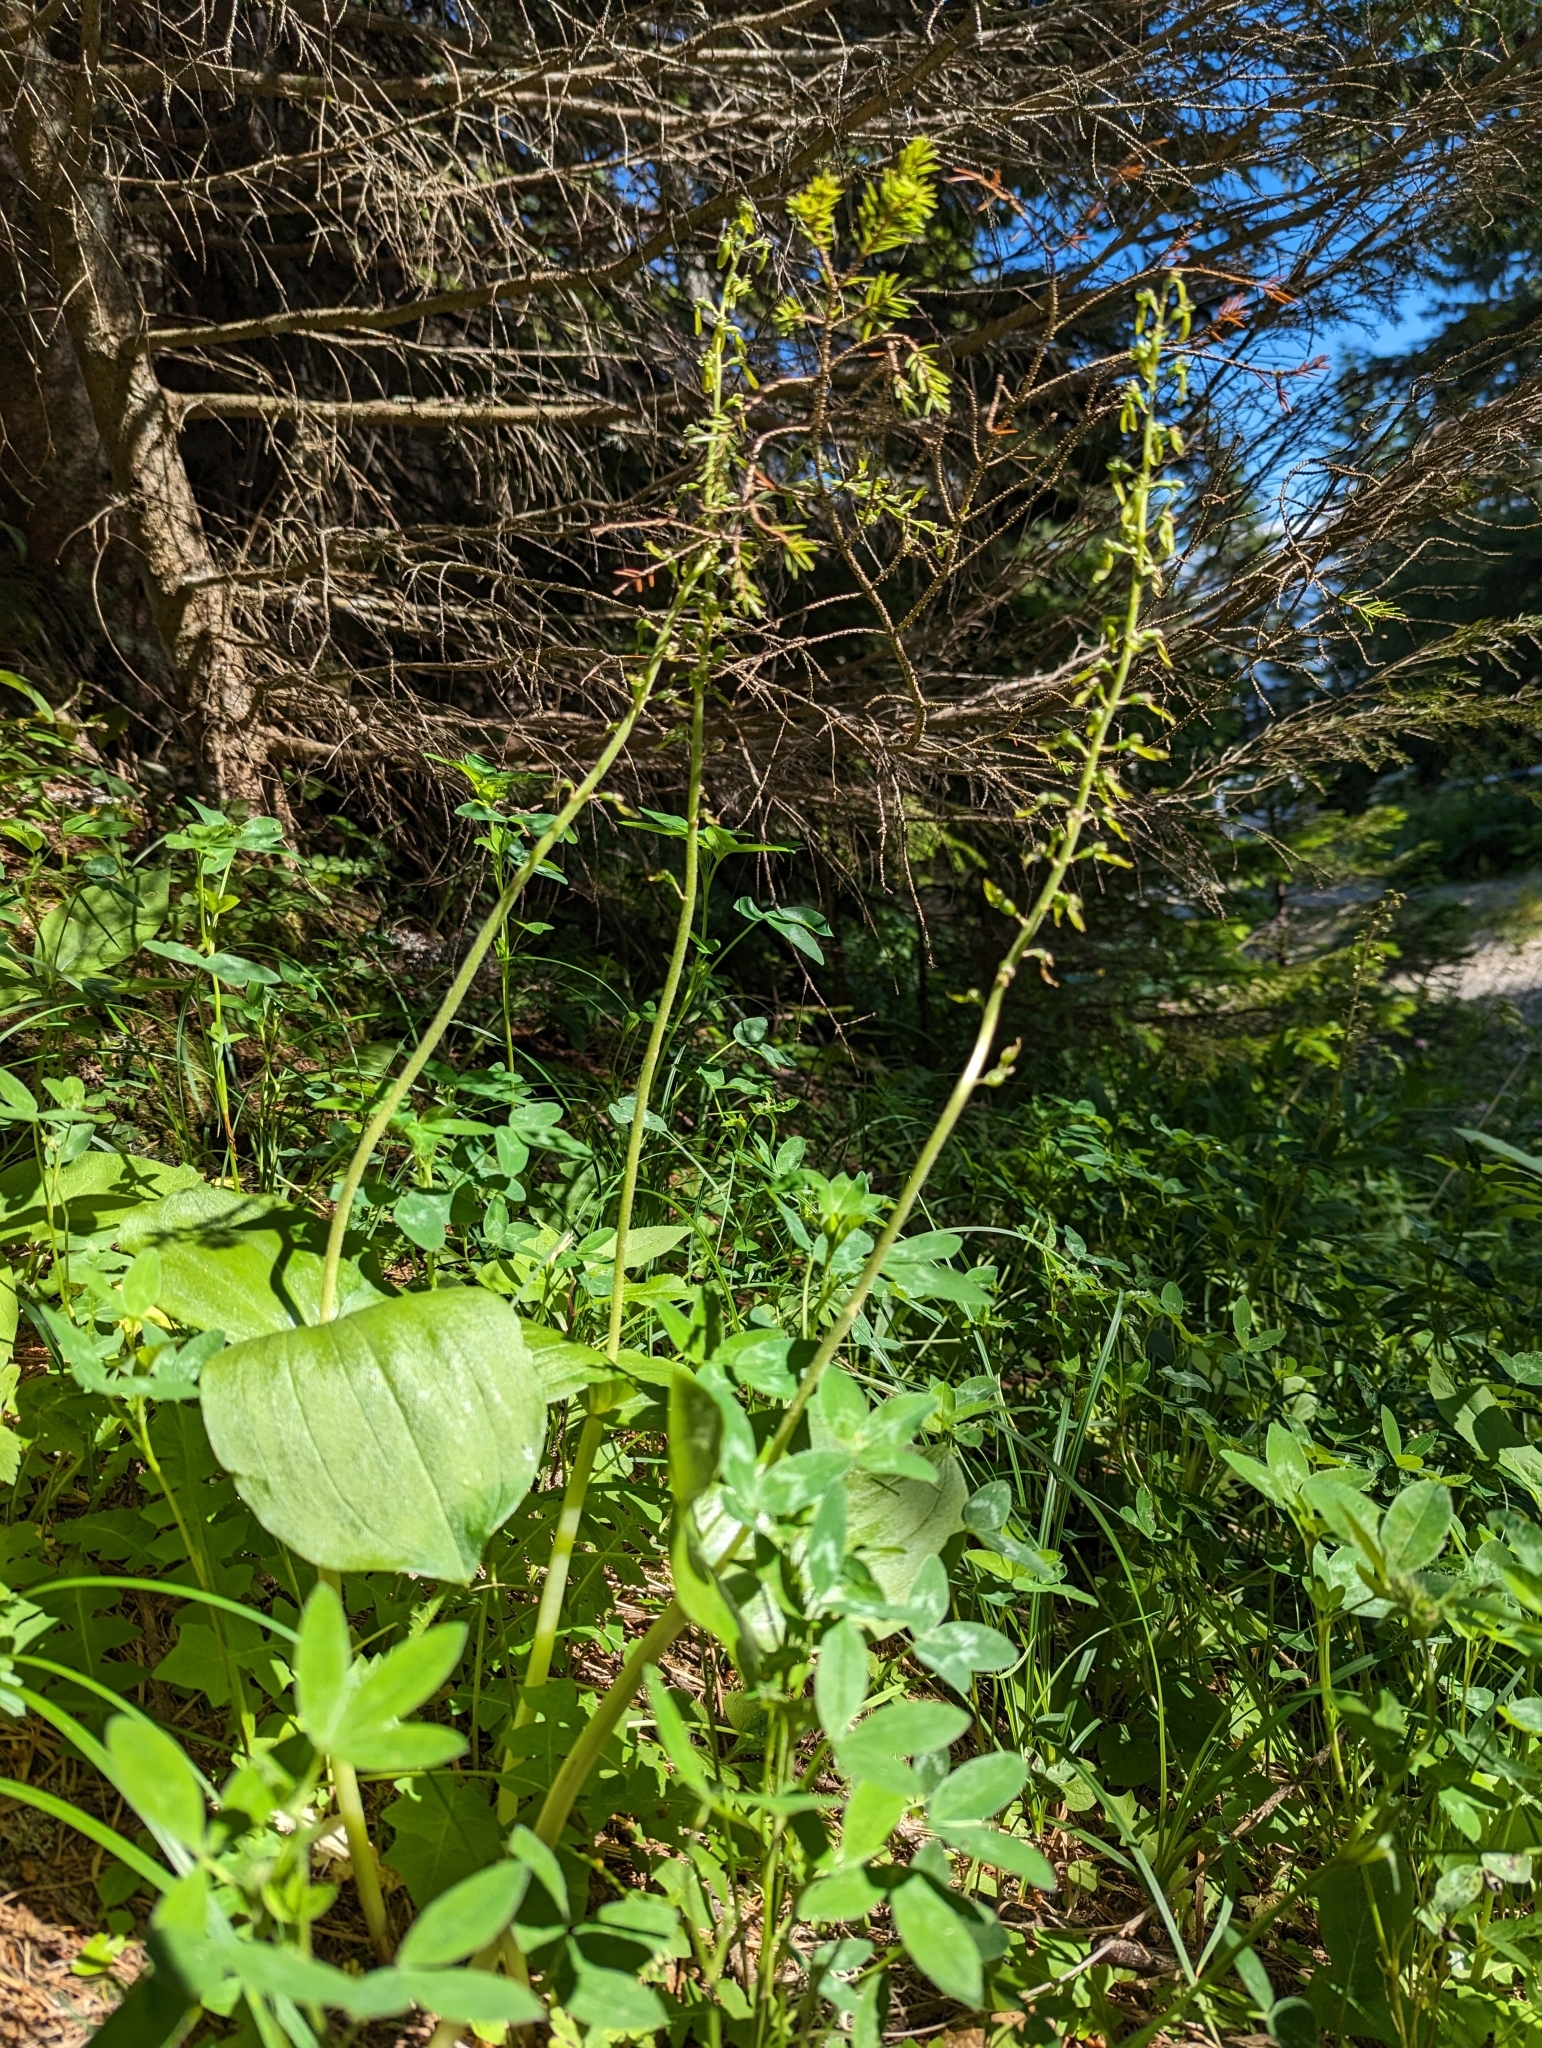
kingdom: Plantae
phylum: Tracheophyta
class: Liliopsida
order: Asparagales
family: Orchidaceae
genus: Neottia
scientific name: Neottia ovata
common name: Common twayblade
